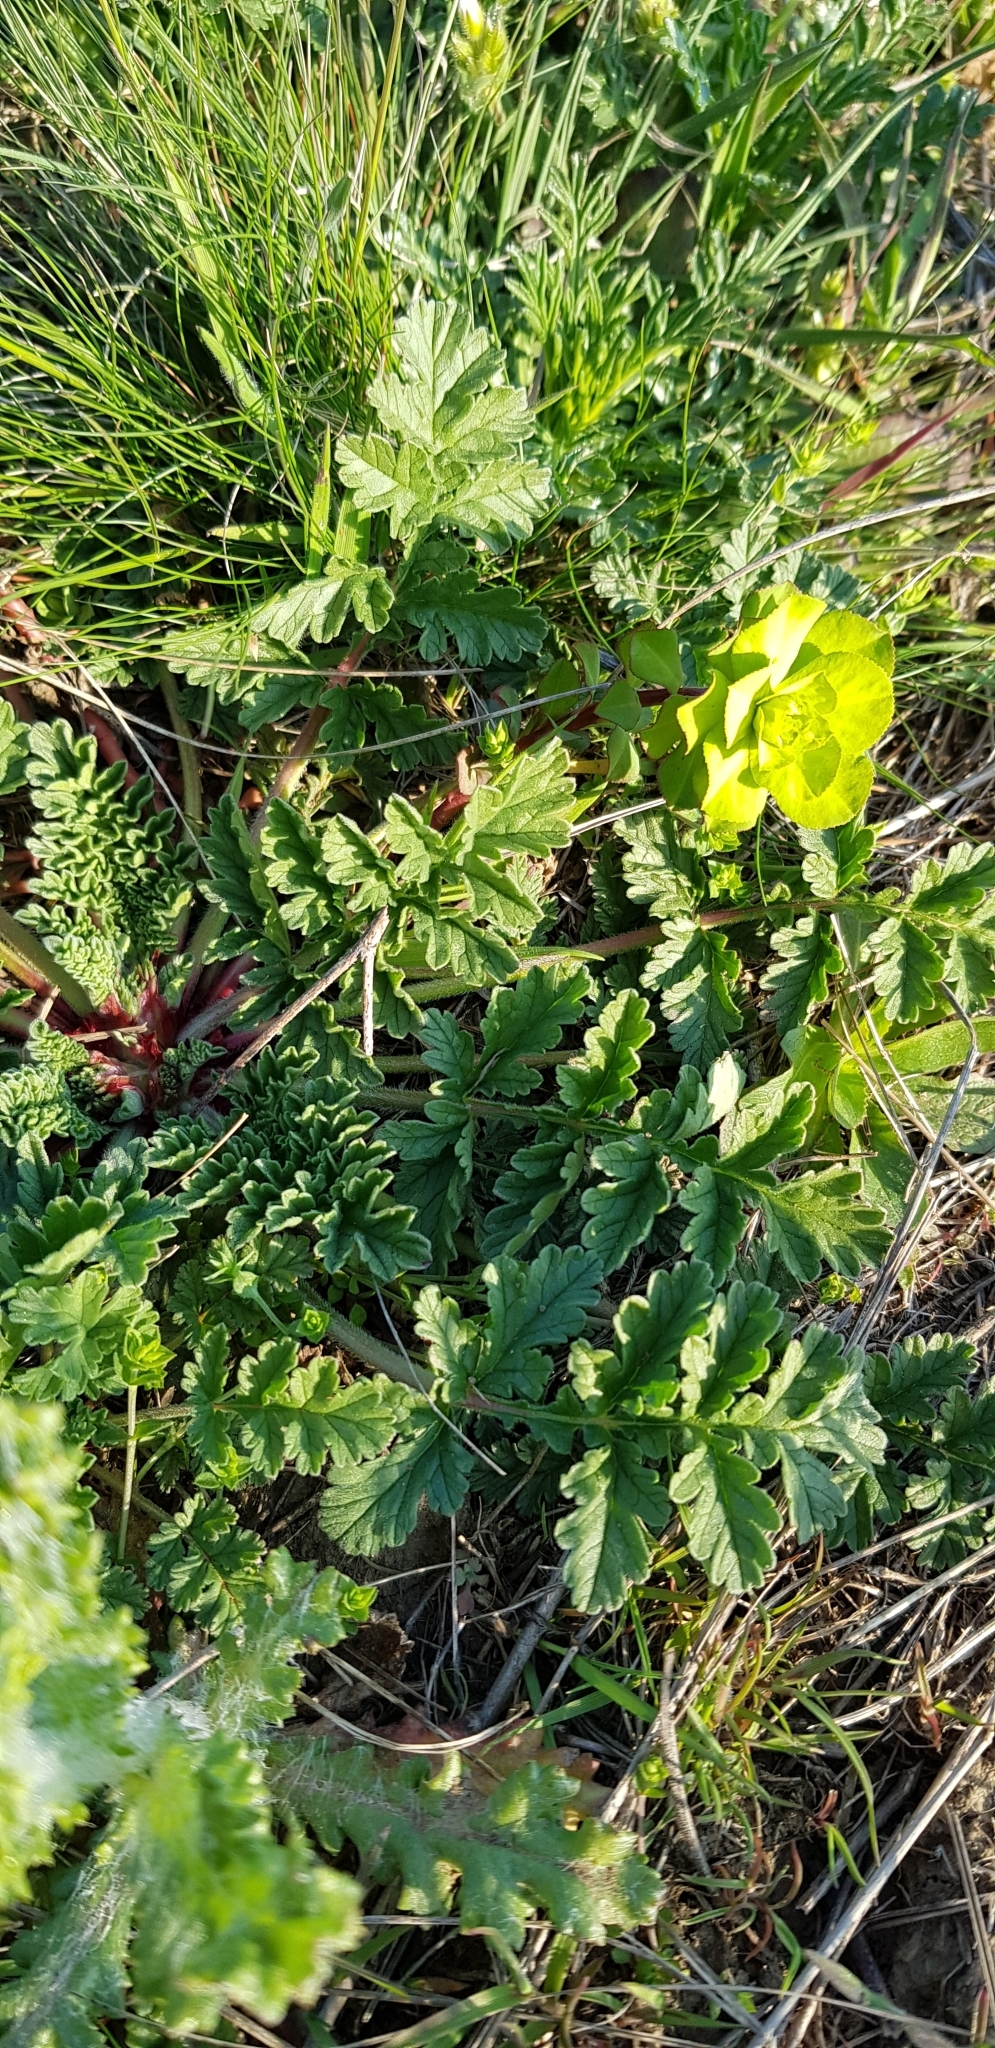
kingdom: Plantae
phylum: Tracheophyta
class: Magnoliopsida
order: Malpighiales
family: Euphorbiaceae
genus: Euphorbia
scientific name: Euphorbia helioscopia
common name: Sun spurge
